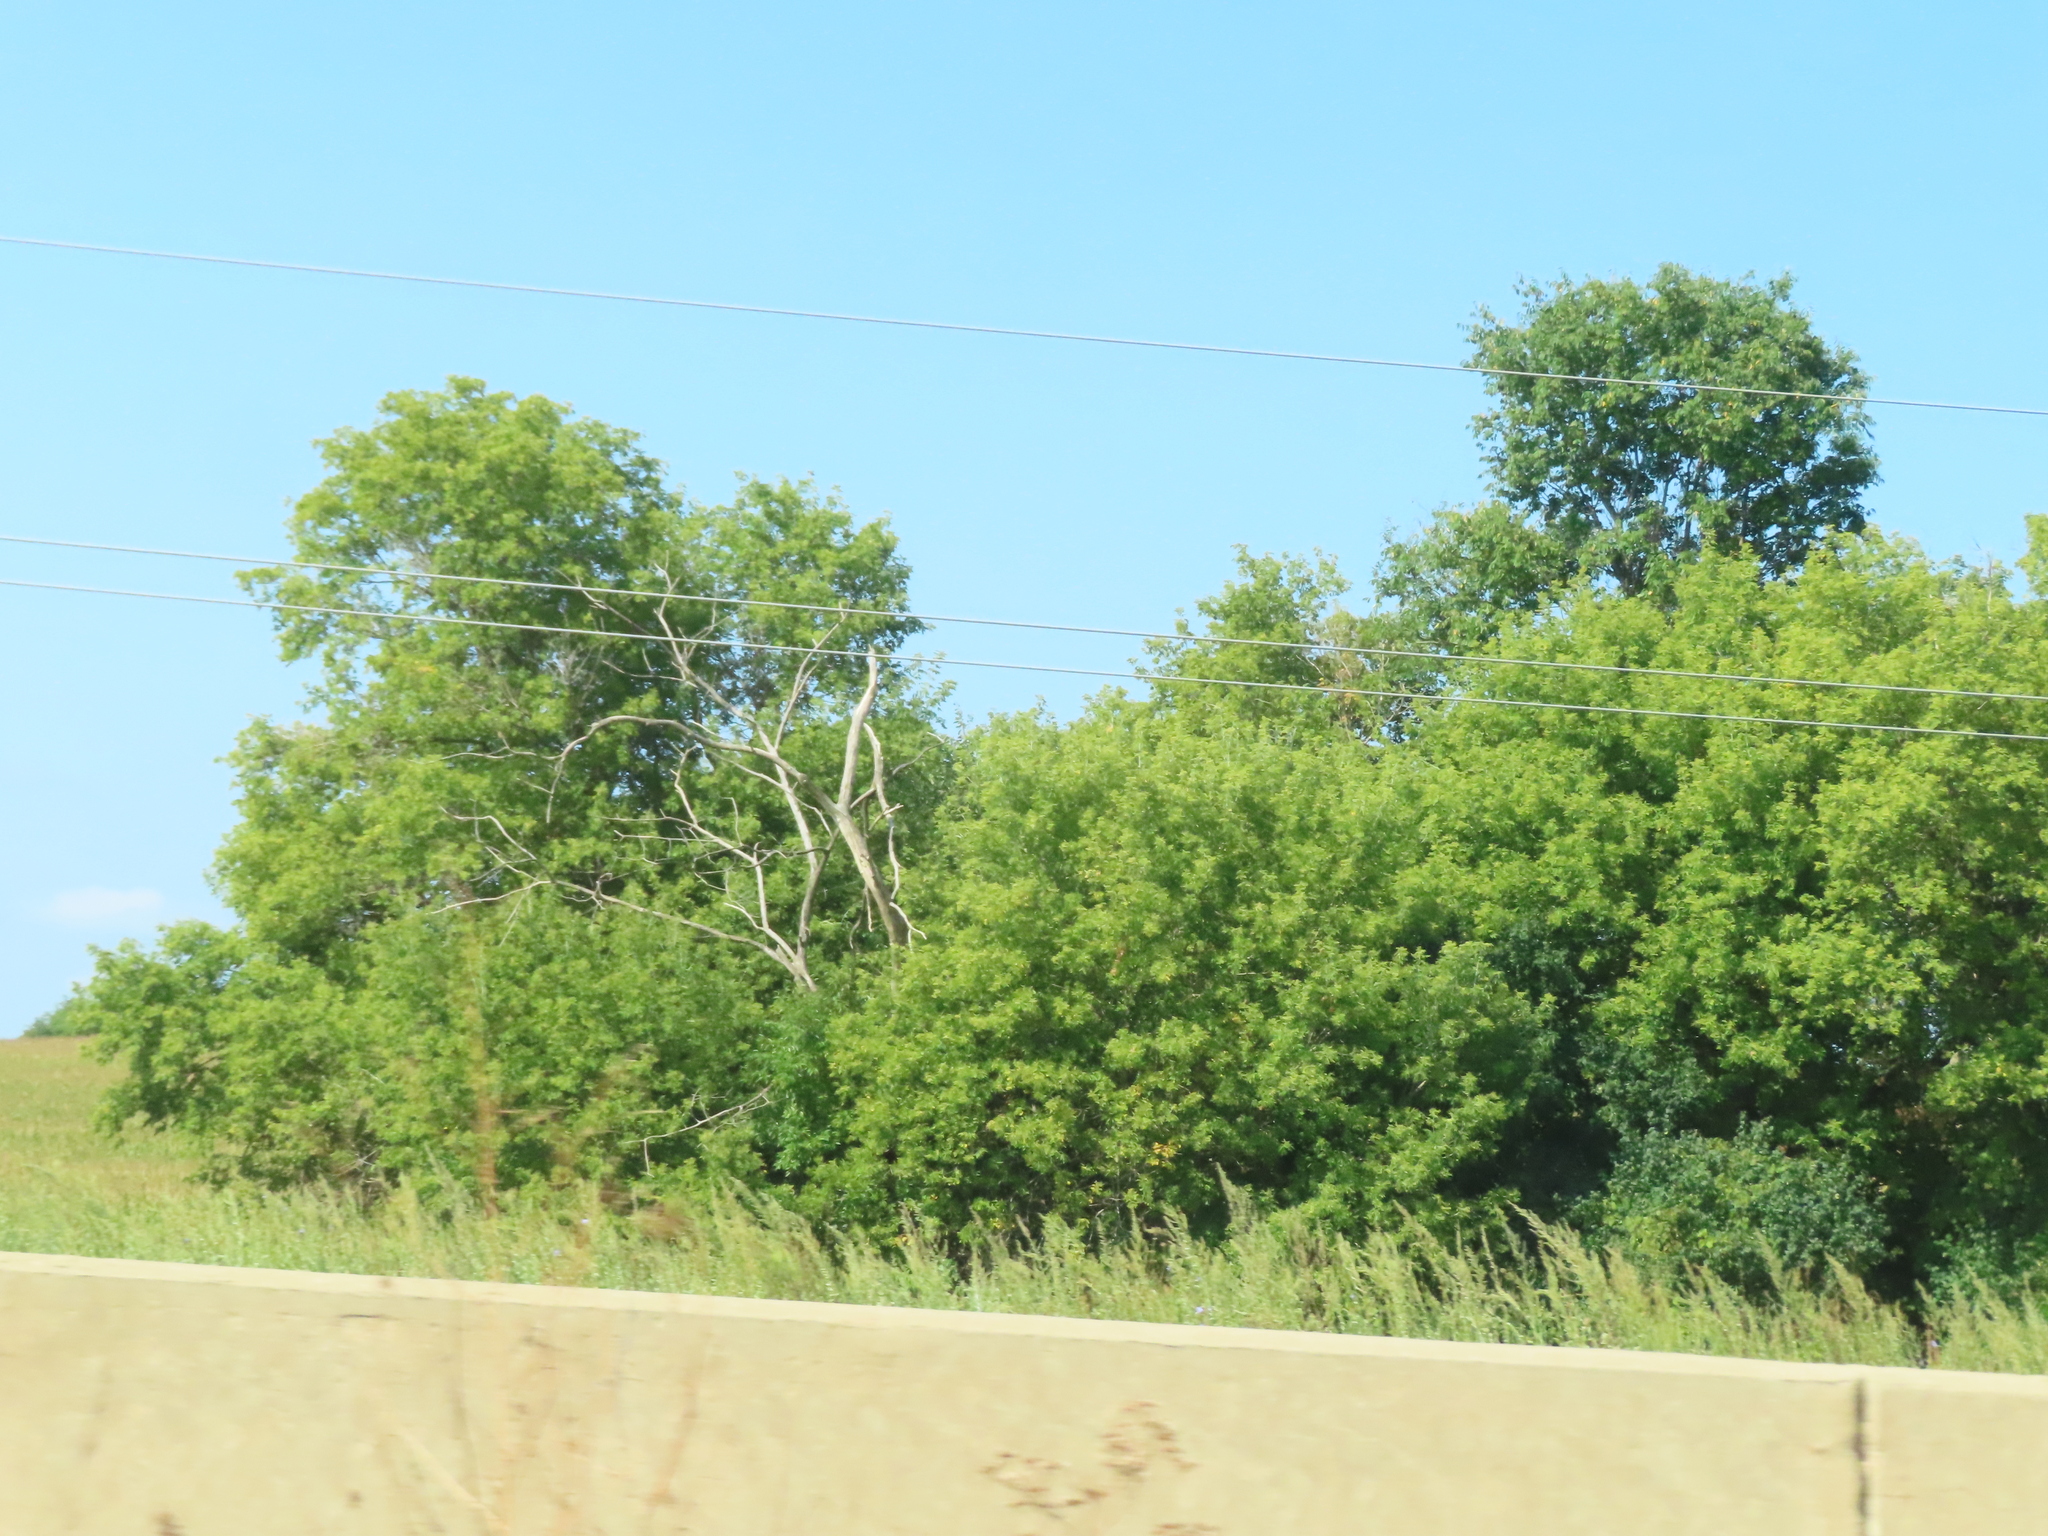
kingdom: Plantae
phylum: Tracheophyta
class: Magnoliopsida
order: Sapindales
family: Sapindaceae
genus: Acer
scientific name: Acer negundo
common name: Ashleaf maple
